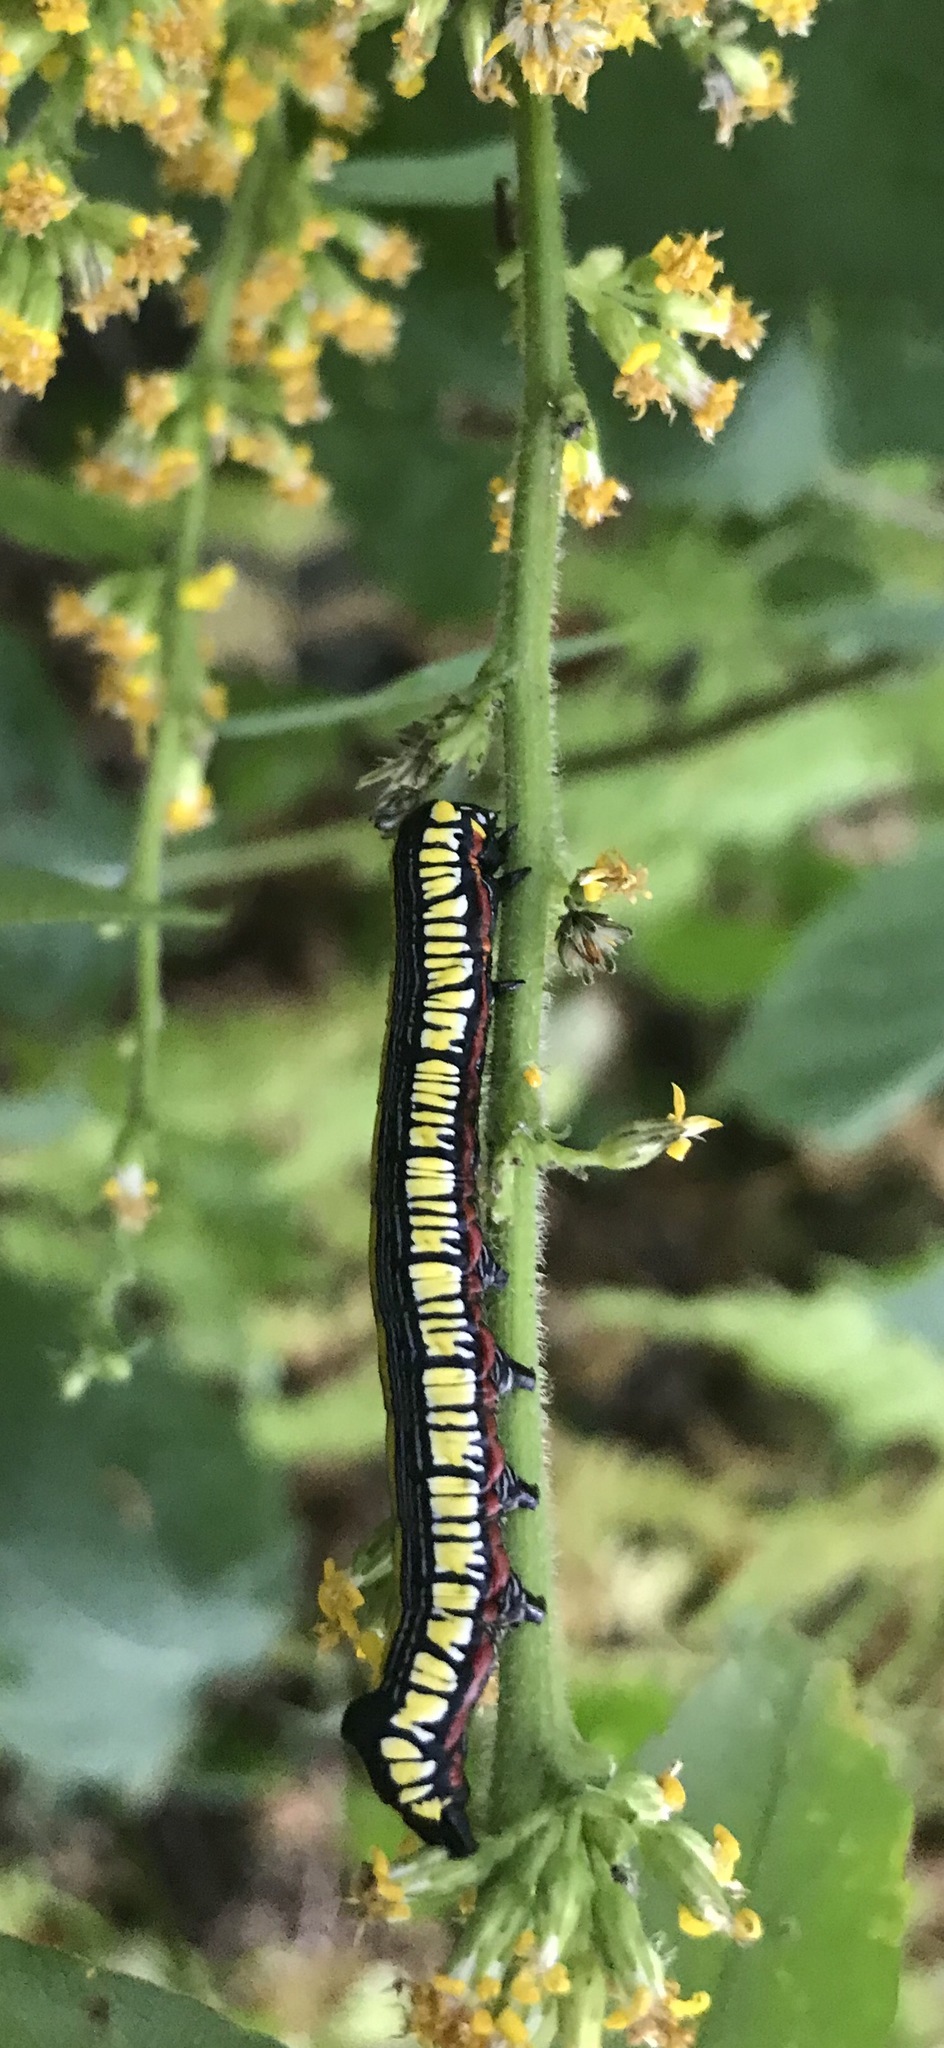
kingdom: Animalia
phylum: Arthropoda
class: Insecta
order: Lepidoptera
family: Noctuidae
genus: Cucullia
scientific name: Cucullia convexipennis
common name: Brown-hooded owlet
